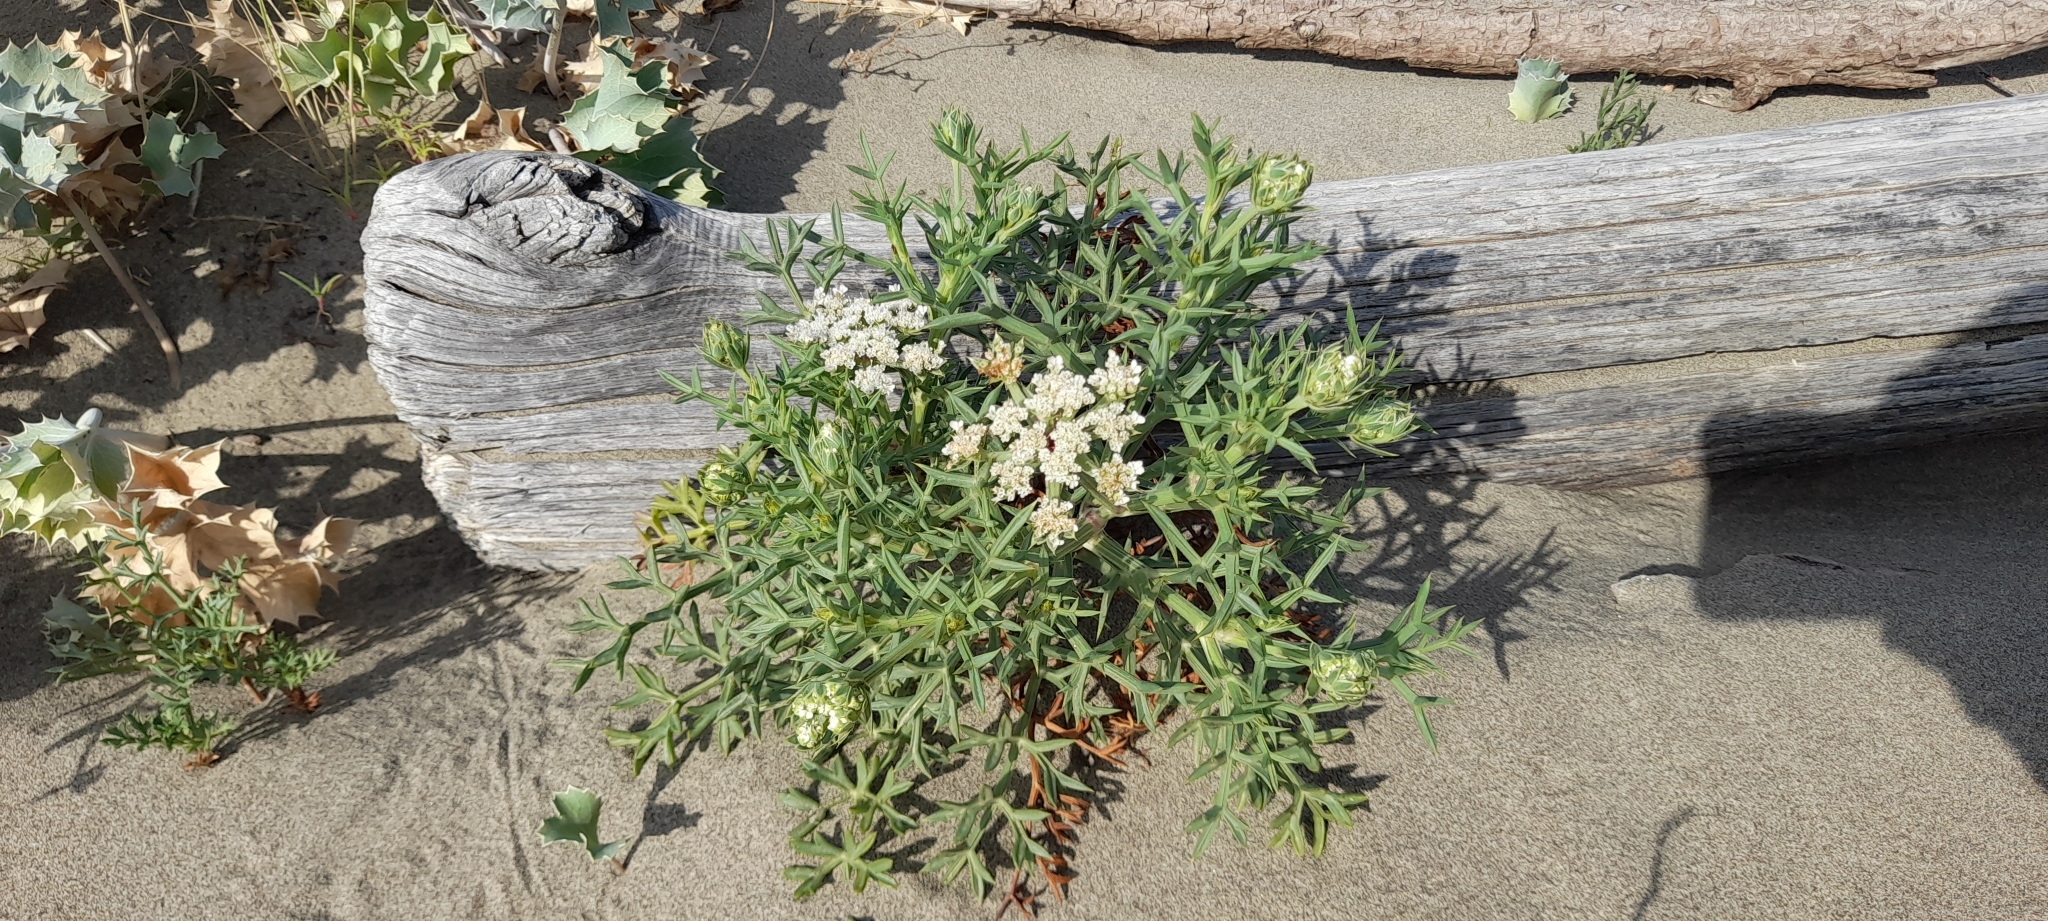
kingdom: Plantae
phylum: Tracheophyta
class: Magnoliopsida
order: Apiales
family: Apiaceae
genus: Echinophora
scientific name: Echinophora spinosa
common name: Prickly samphire
